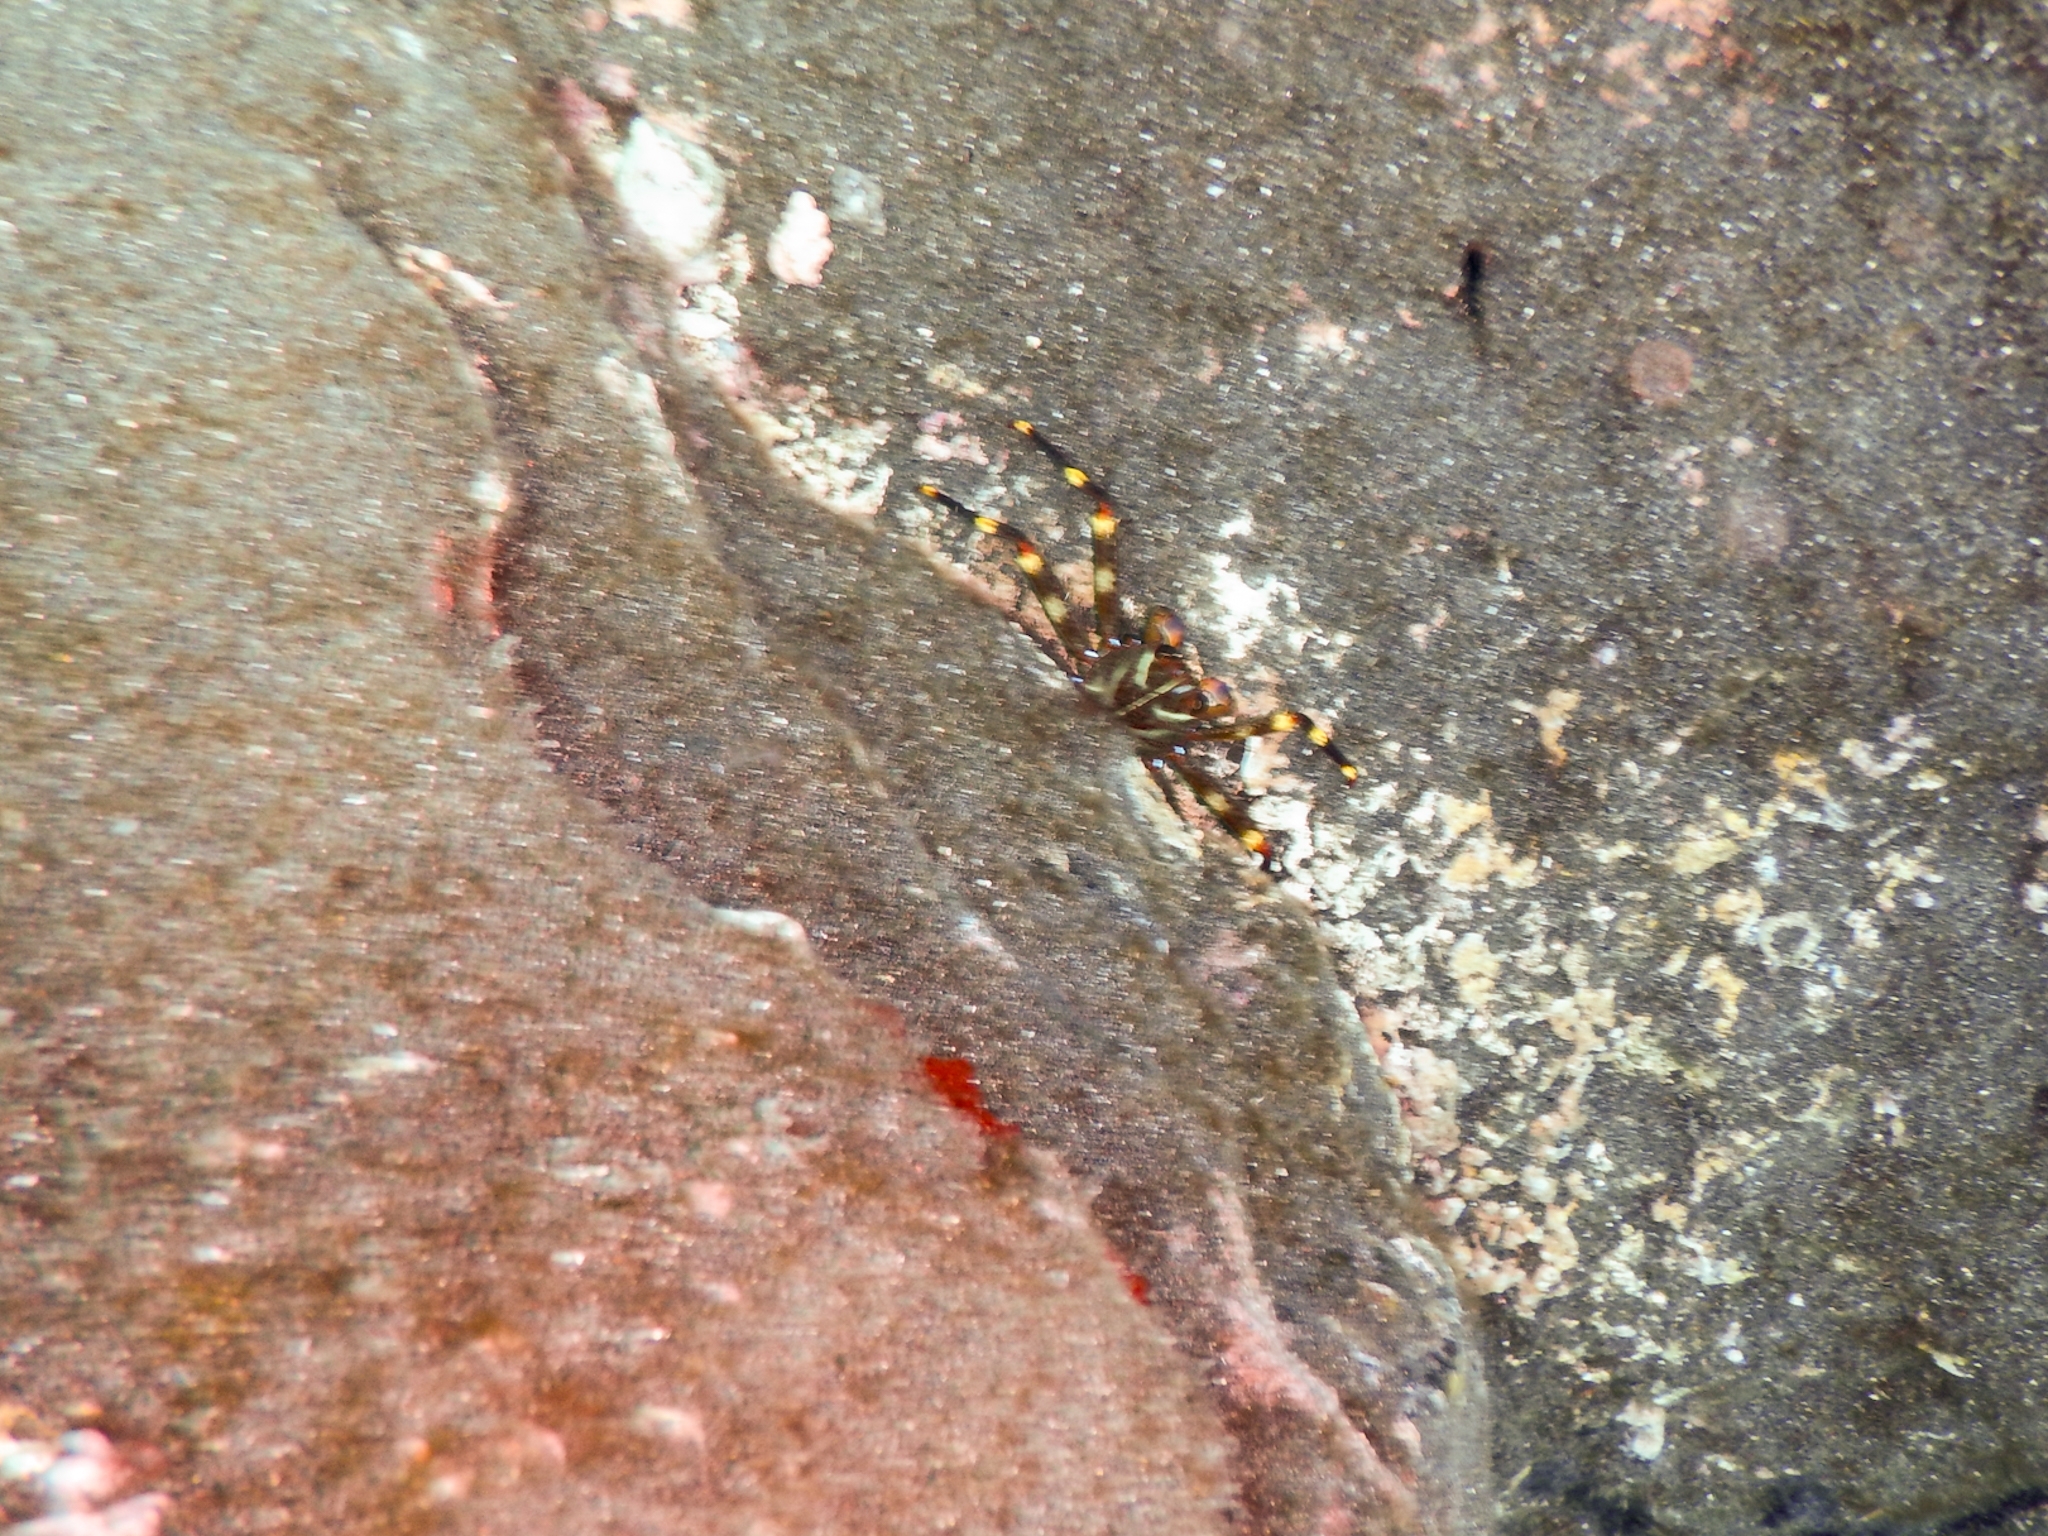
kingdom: Animalia
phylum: Arthropoda
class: Malacostraca
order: Decapoda
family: Percnidae
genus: Percnon
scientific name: Percnon gibbesi
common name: Nimble spray crab
